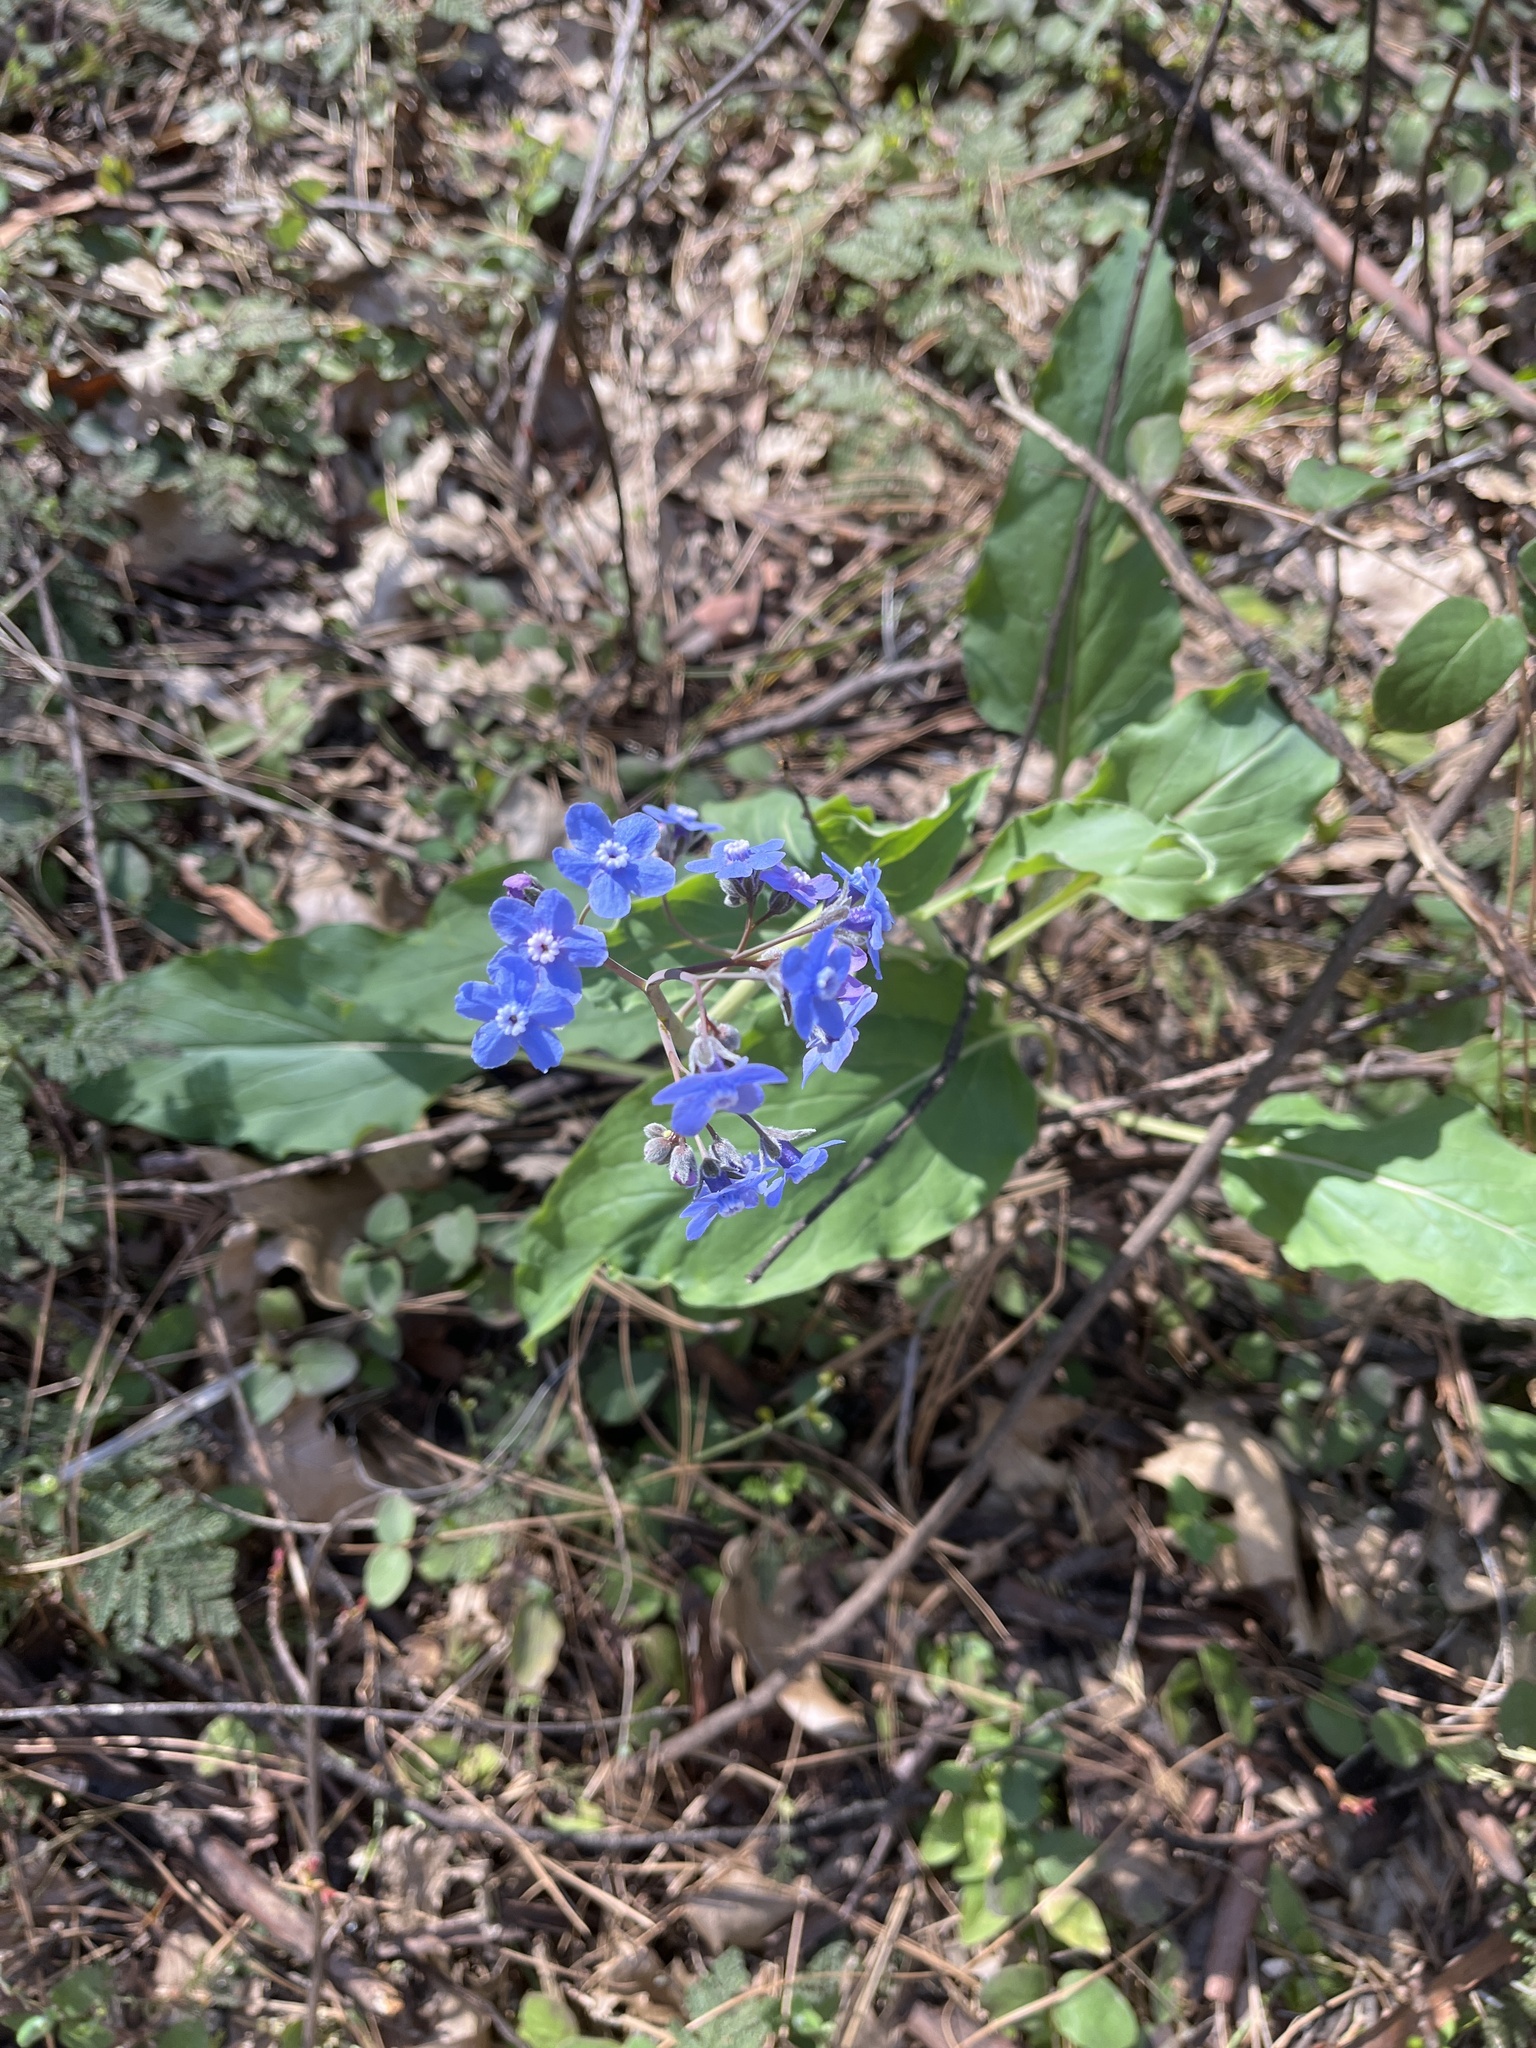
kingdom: Plantae
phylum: Tracheophyta
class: Magnoliopsida
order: Boraginales
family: Boraginaceae
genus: Adelinia
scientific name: Adelinia grande
